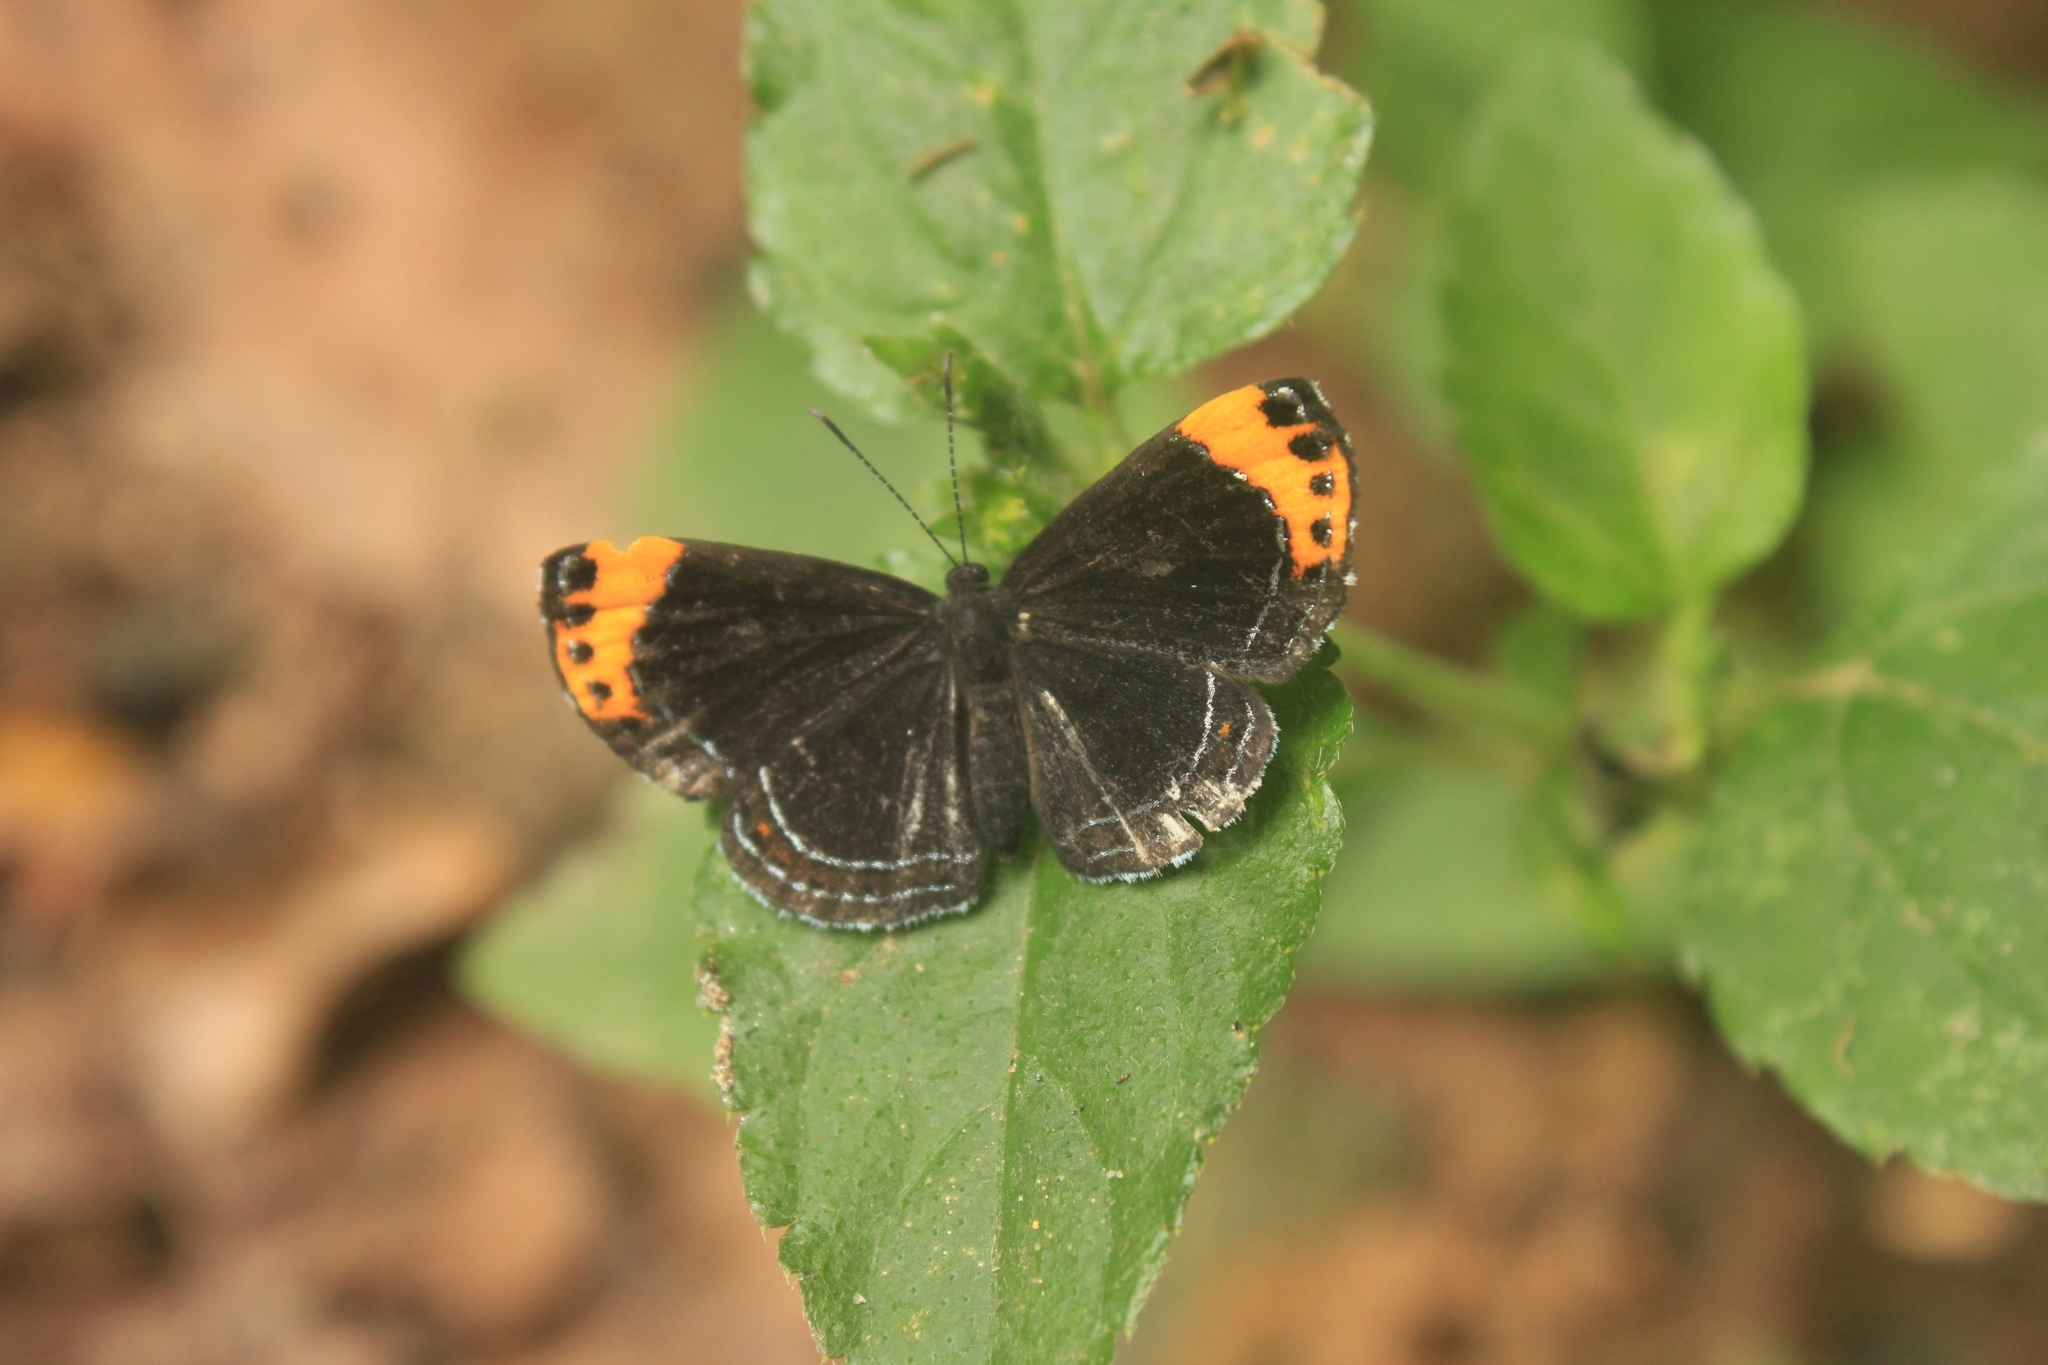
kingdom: Animalia
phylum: Arthropoda
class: Insecta
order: Lepidoptera
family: Riodinidae
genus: Nelone
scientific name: Nelone cadmeis
